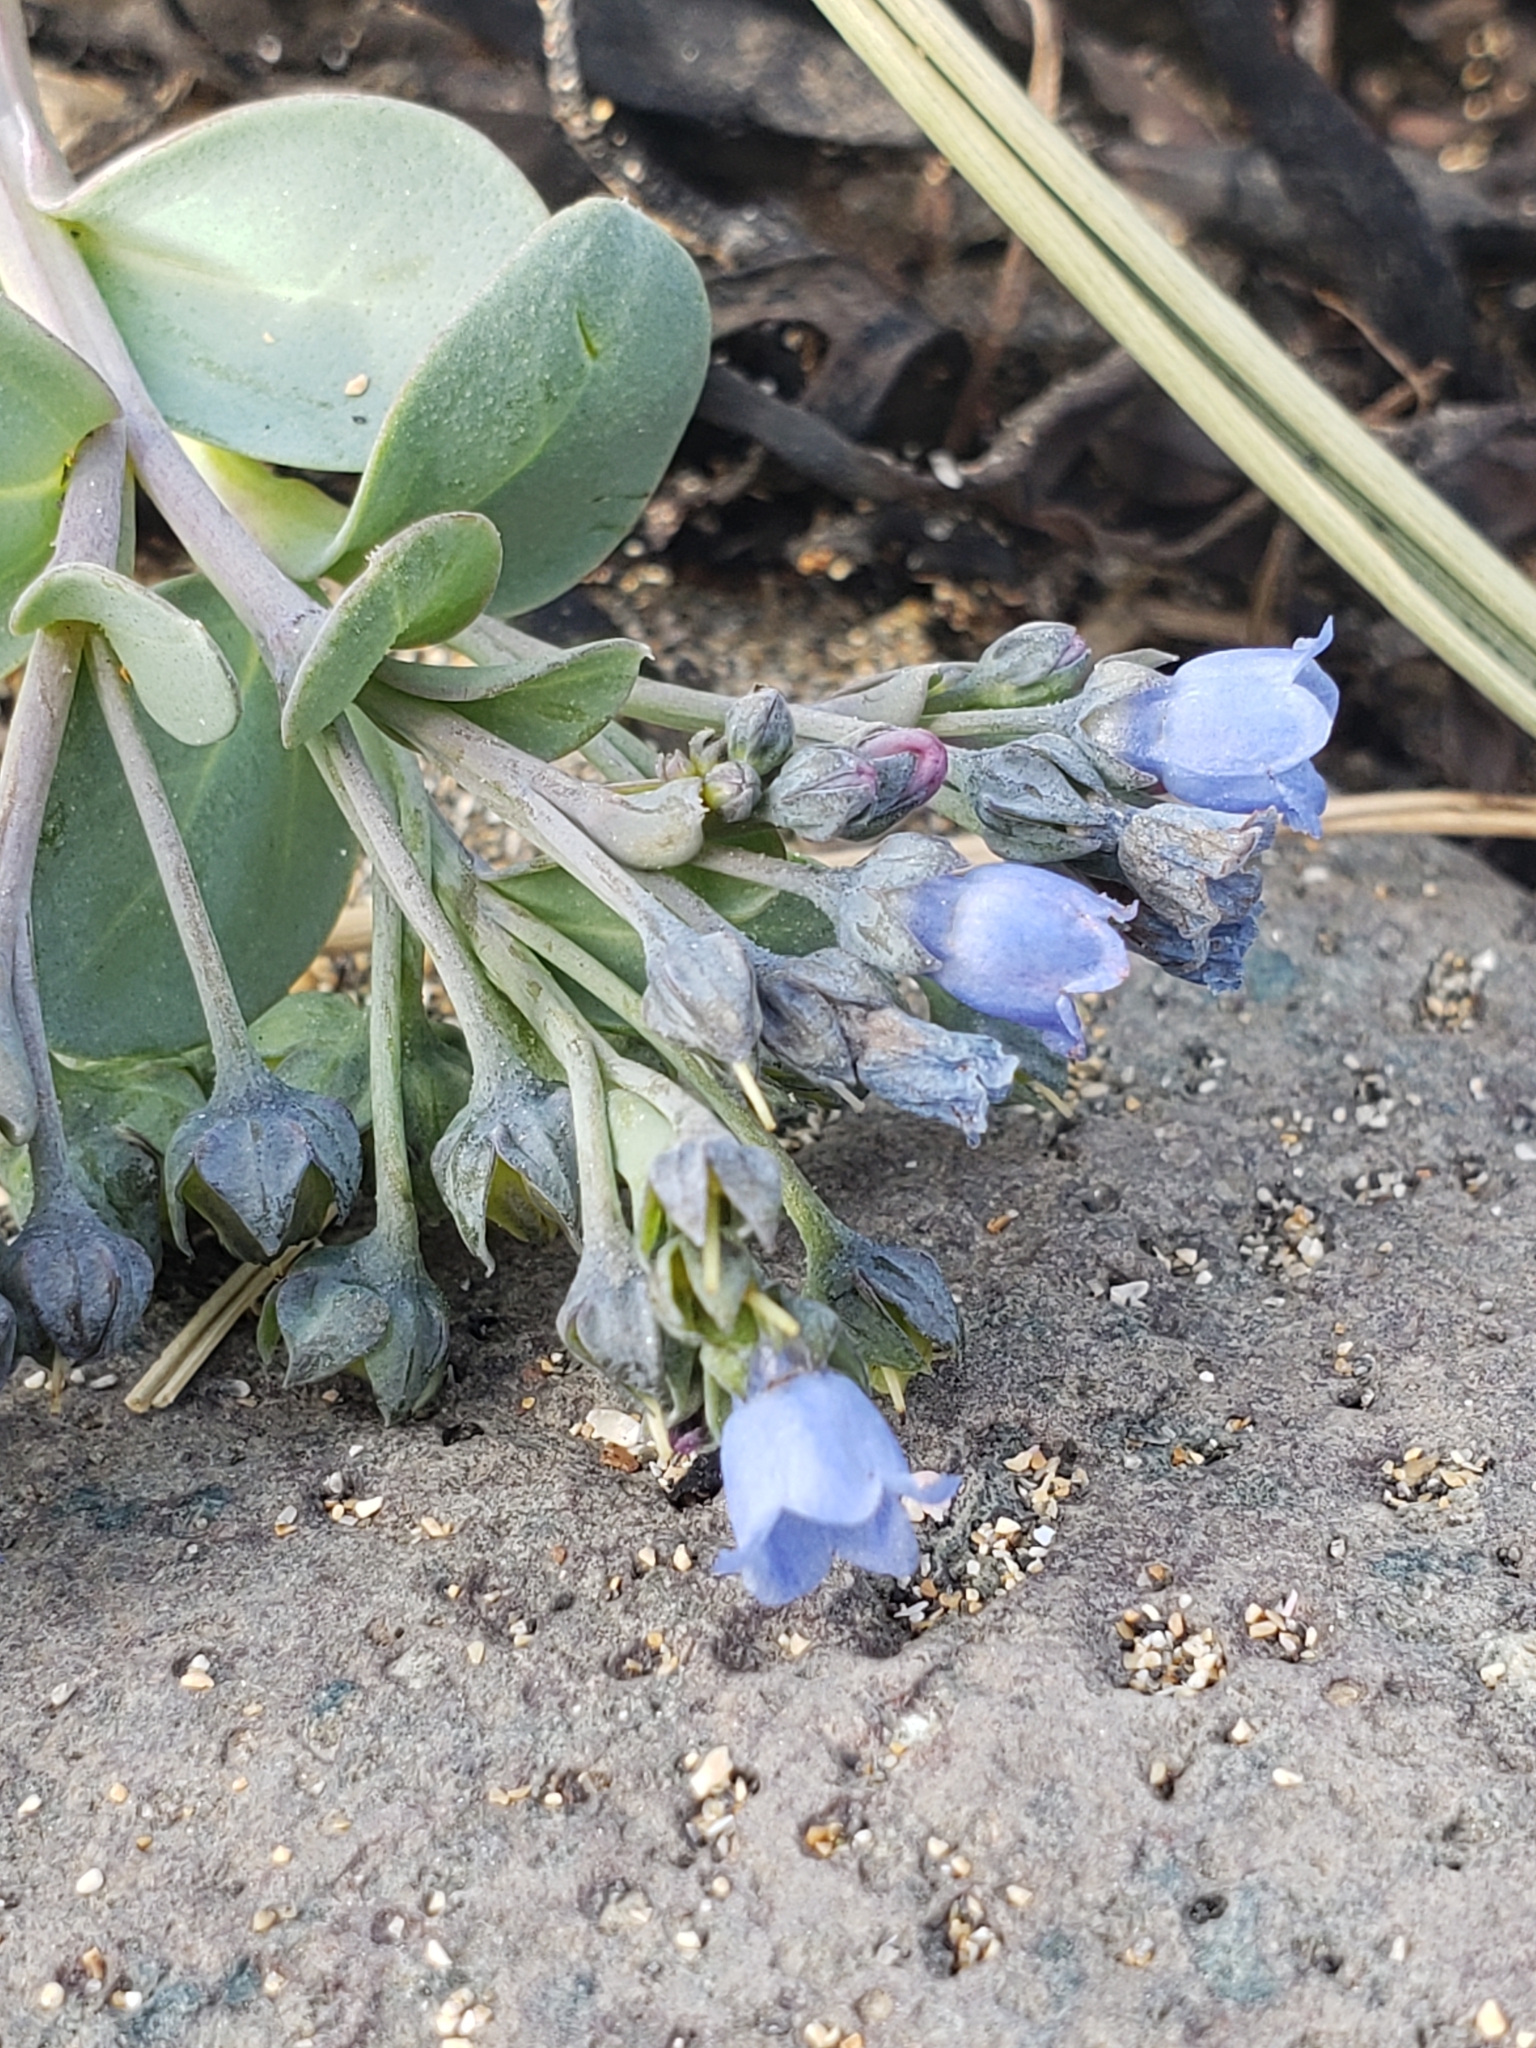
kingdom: Plantae
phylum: Tracheophyta
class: Magnoliopsida
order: Boraginales
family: Boraginaceae
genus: Mertensia
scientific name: Mertensia maritima
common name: Oysterplant
